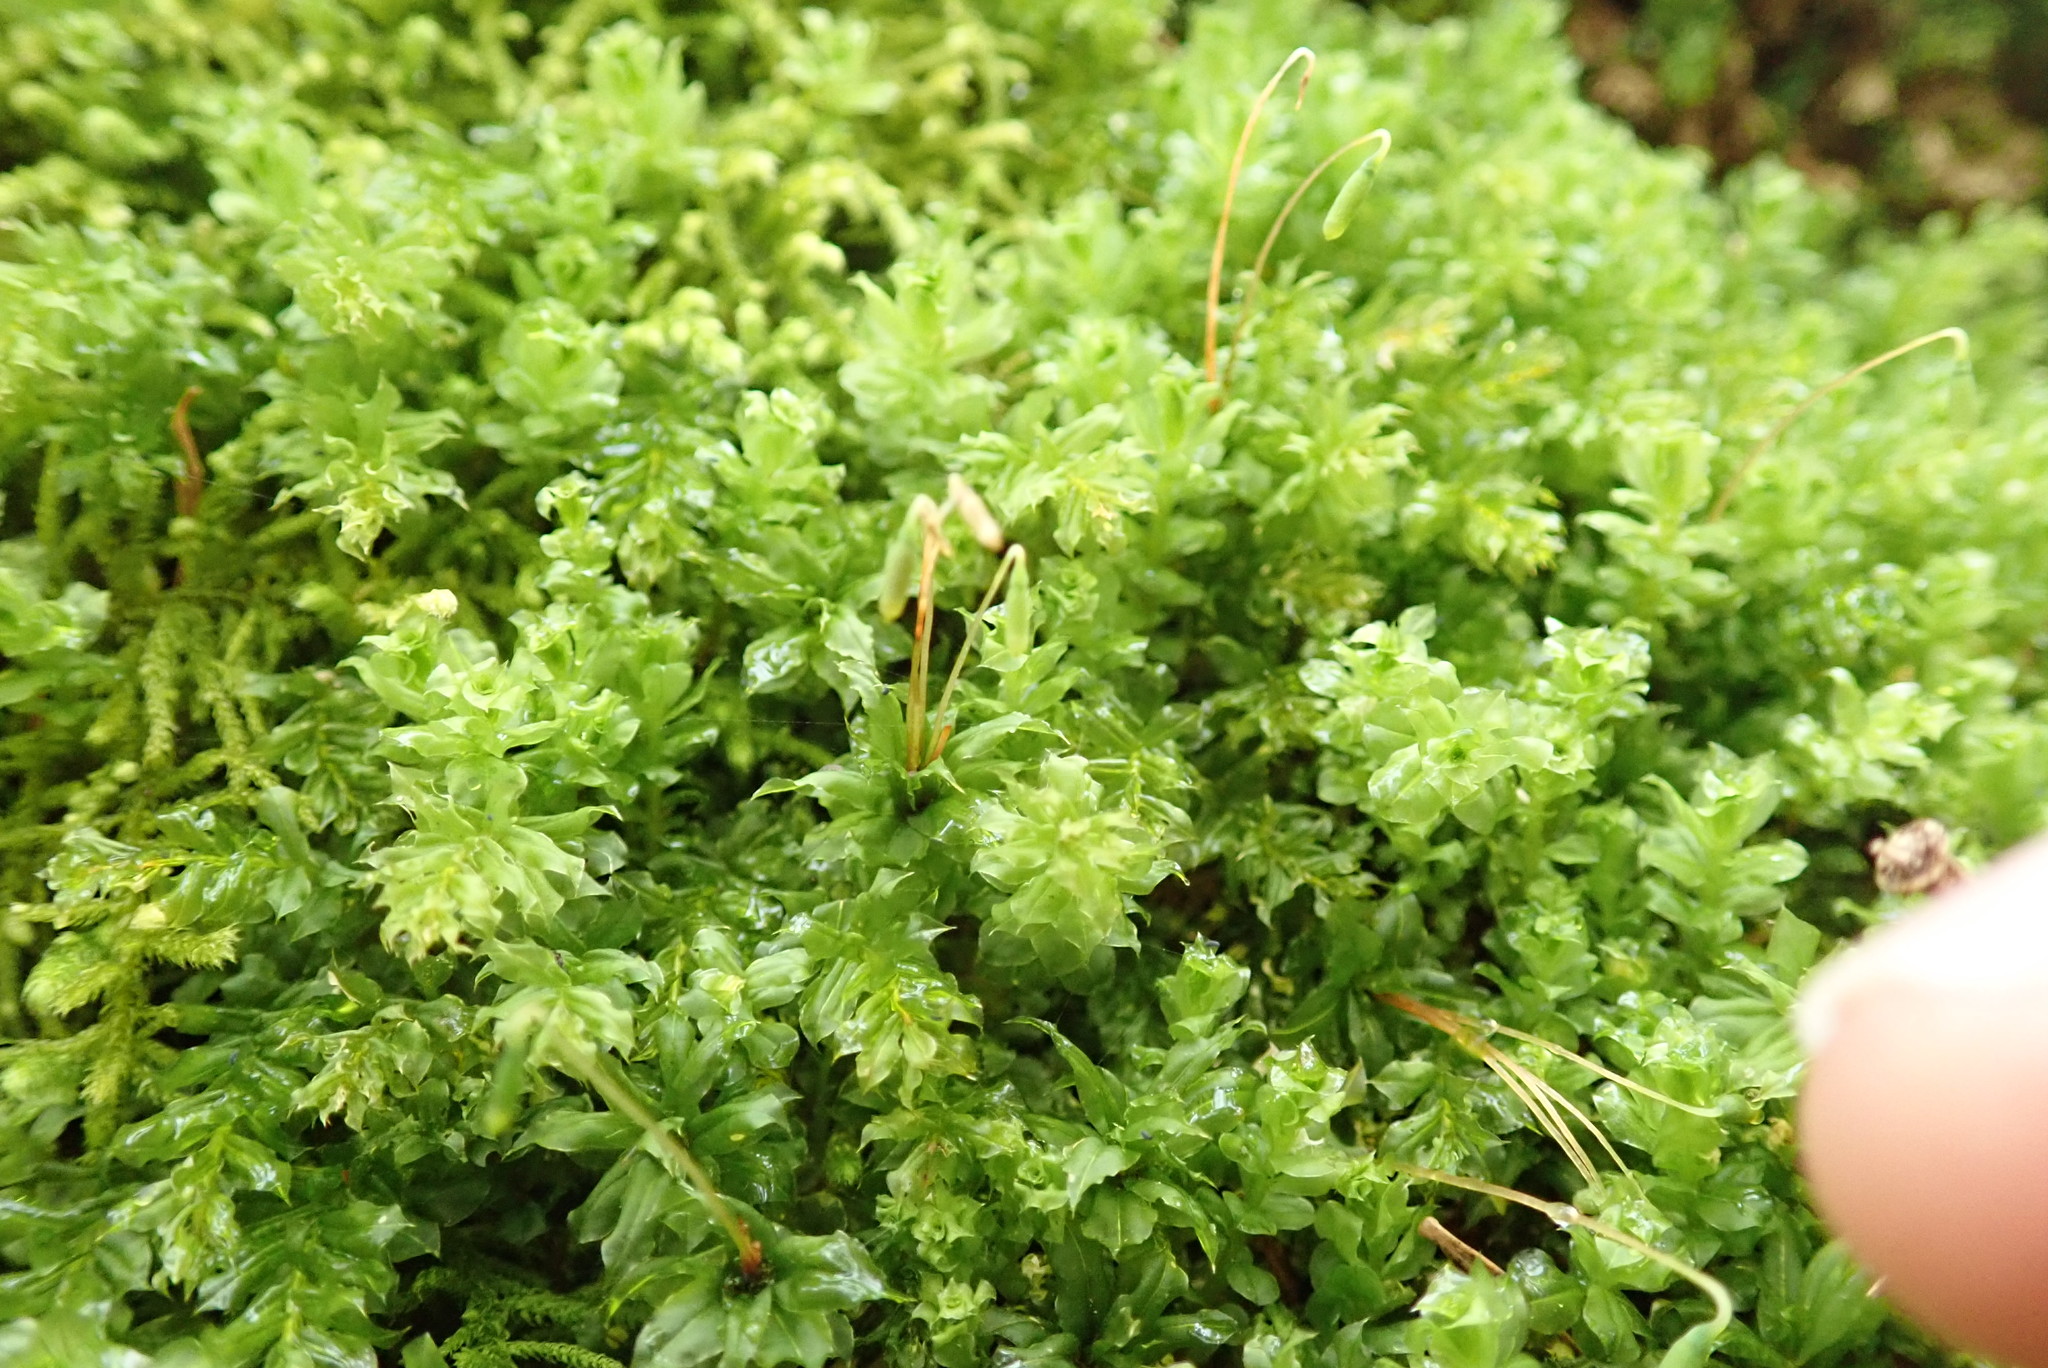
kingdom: Plantae
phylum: Bryophyta
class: Bryopsida
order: Bryales
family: Mniaceae
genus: Plagiomnium
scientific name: Plagiomnium venustum
